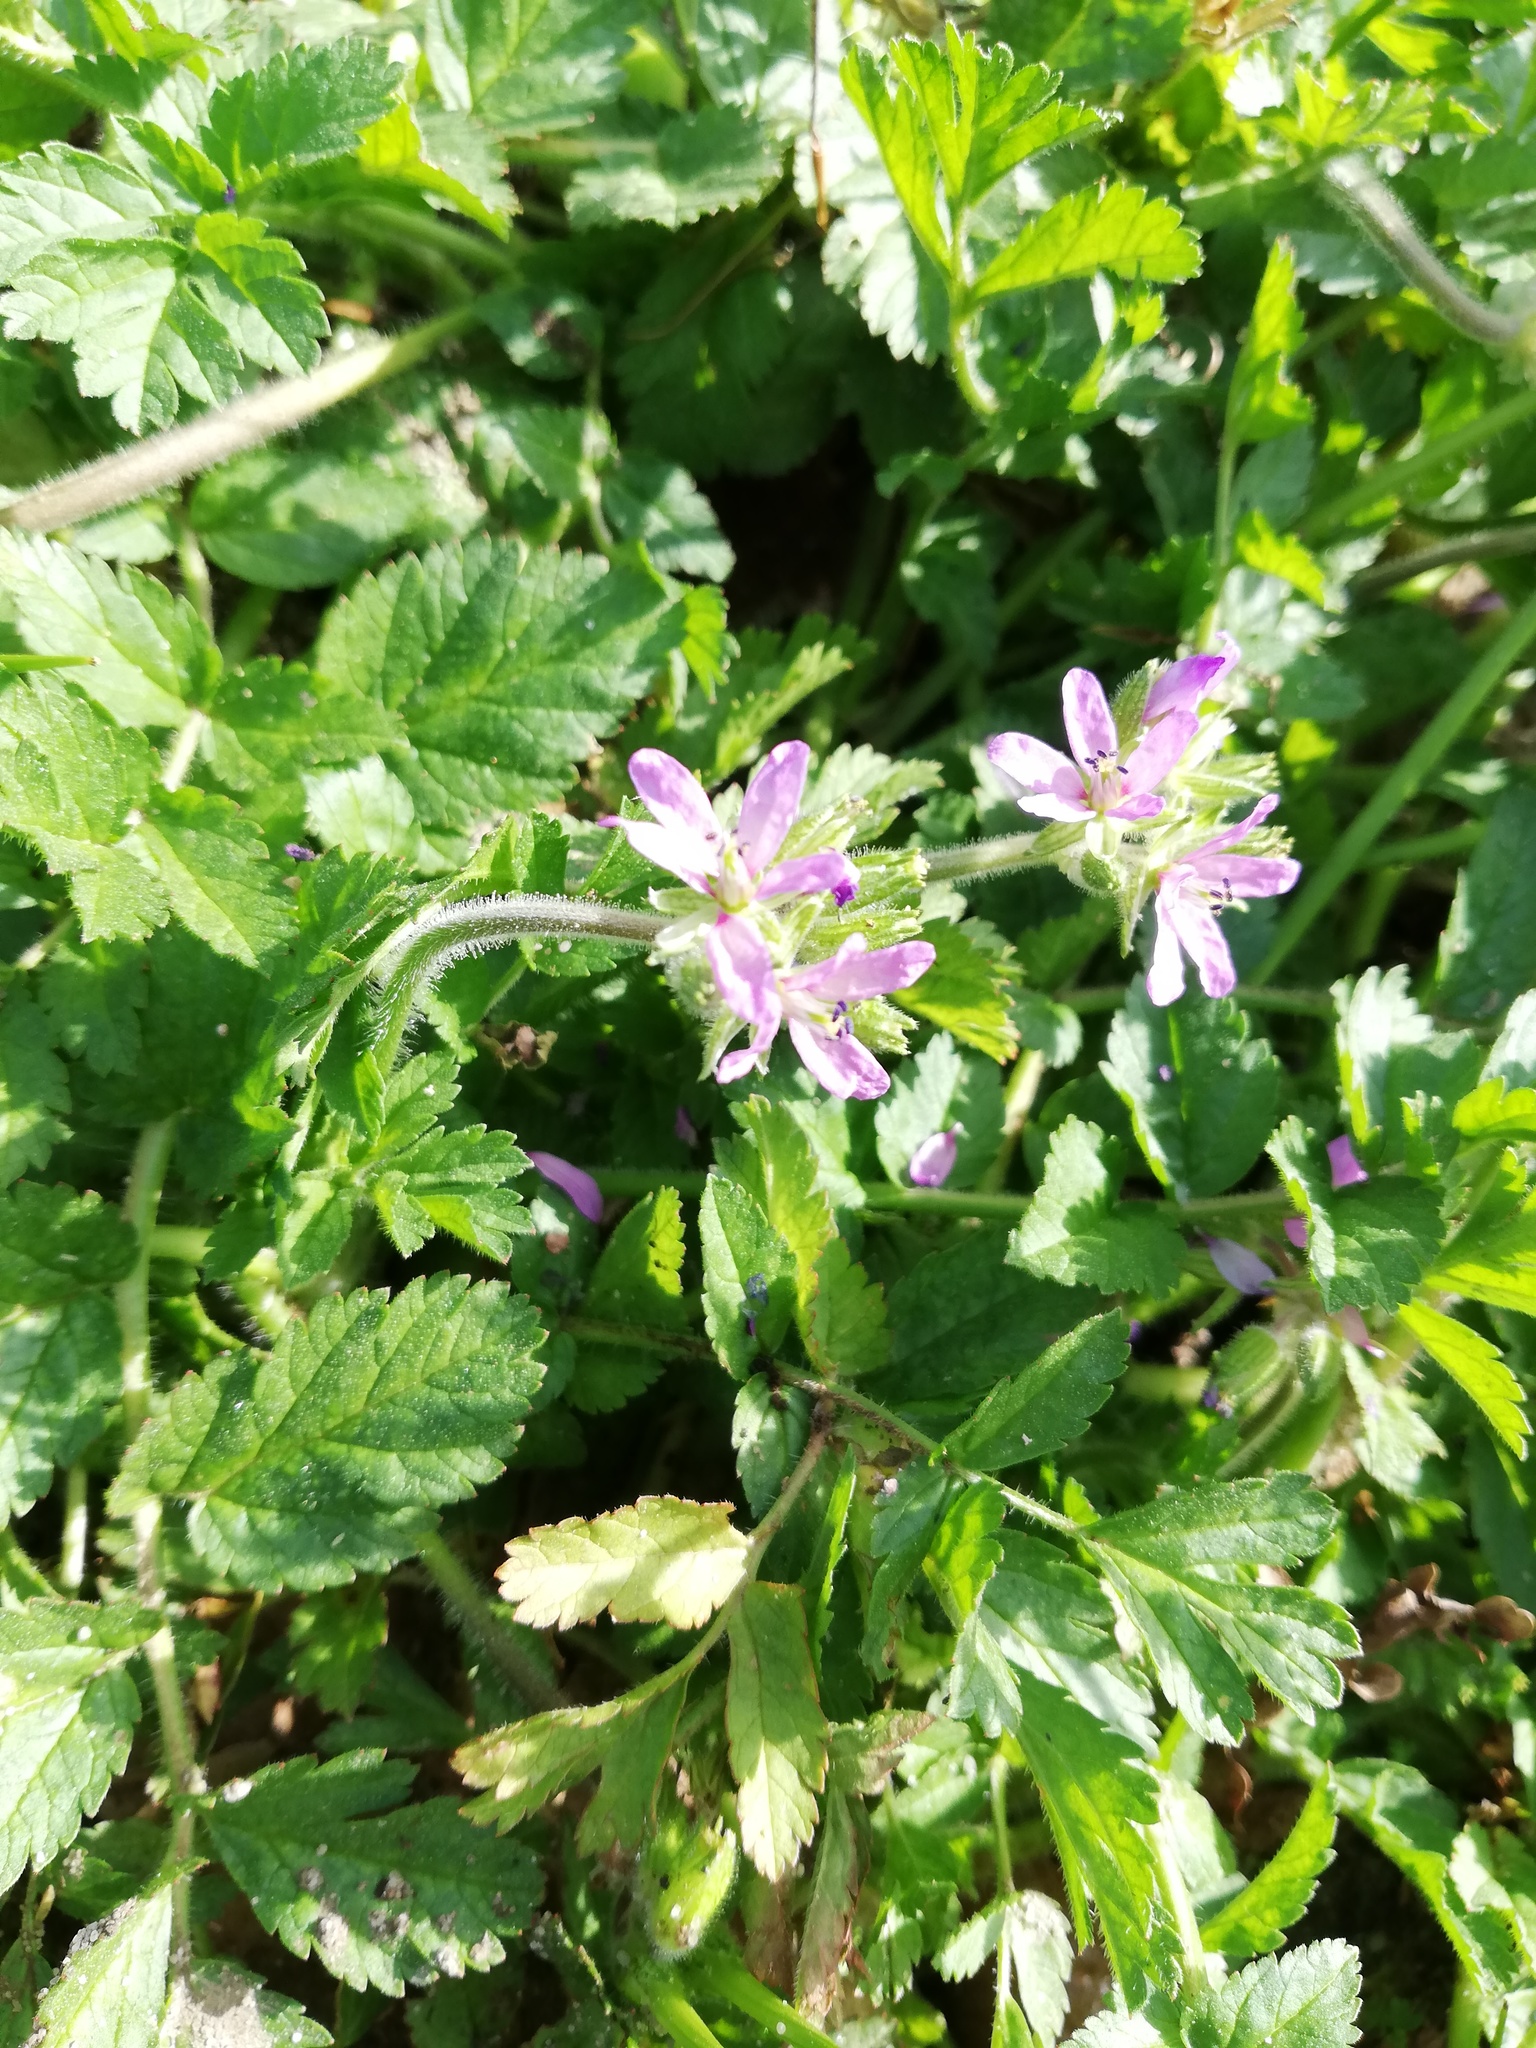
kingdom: Plantae
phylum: Tracheophyta
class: Magnoliopsida
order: Geraniales
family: Geraniaceae
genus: Erodium
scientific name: Erodium moschatum
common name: Musk stork's-bill
